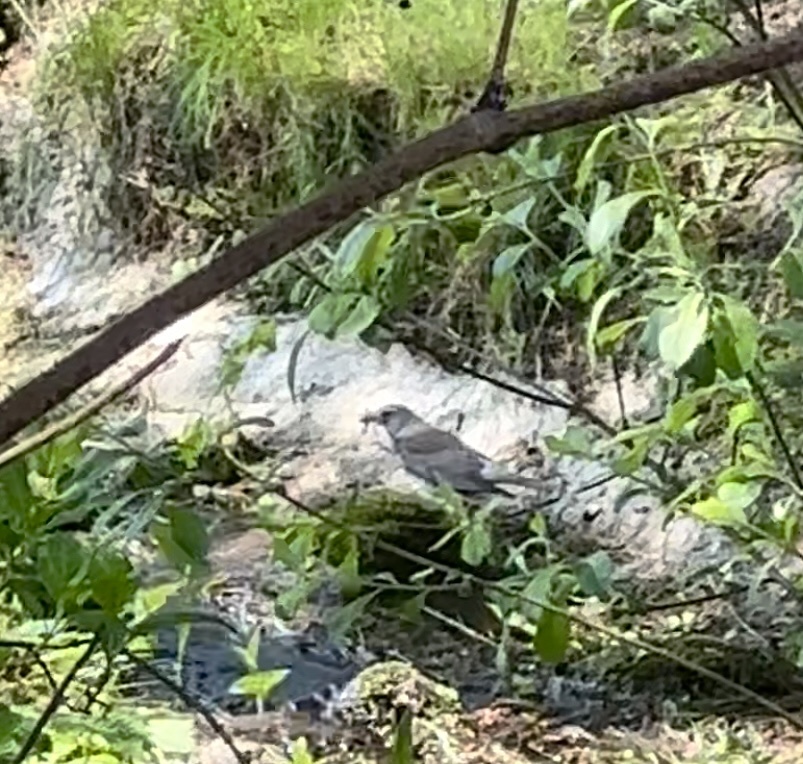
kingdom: Animalia
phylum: Chordata
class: Aves
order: Passeriformes
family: Turdidae
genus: Turdus
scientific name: Turdus pilaris
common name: Fieldfare
